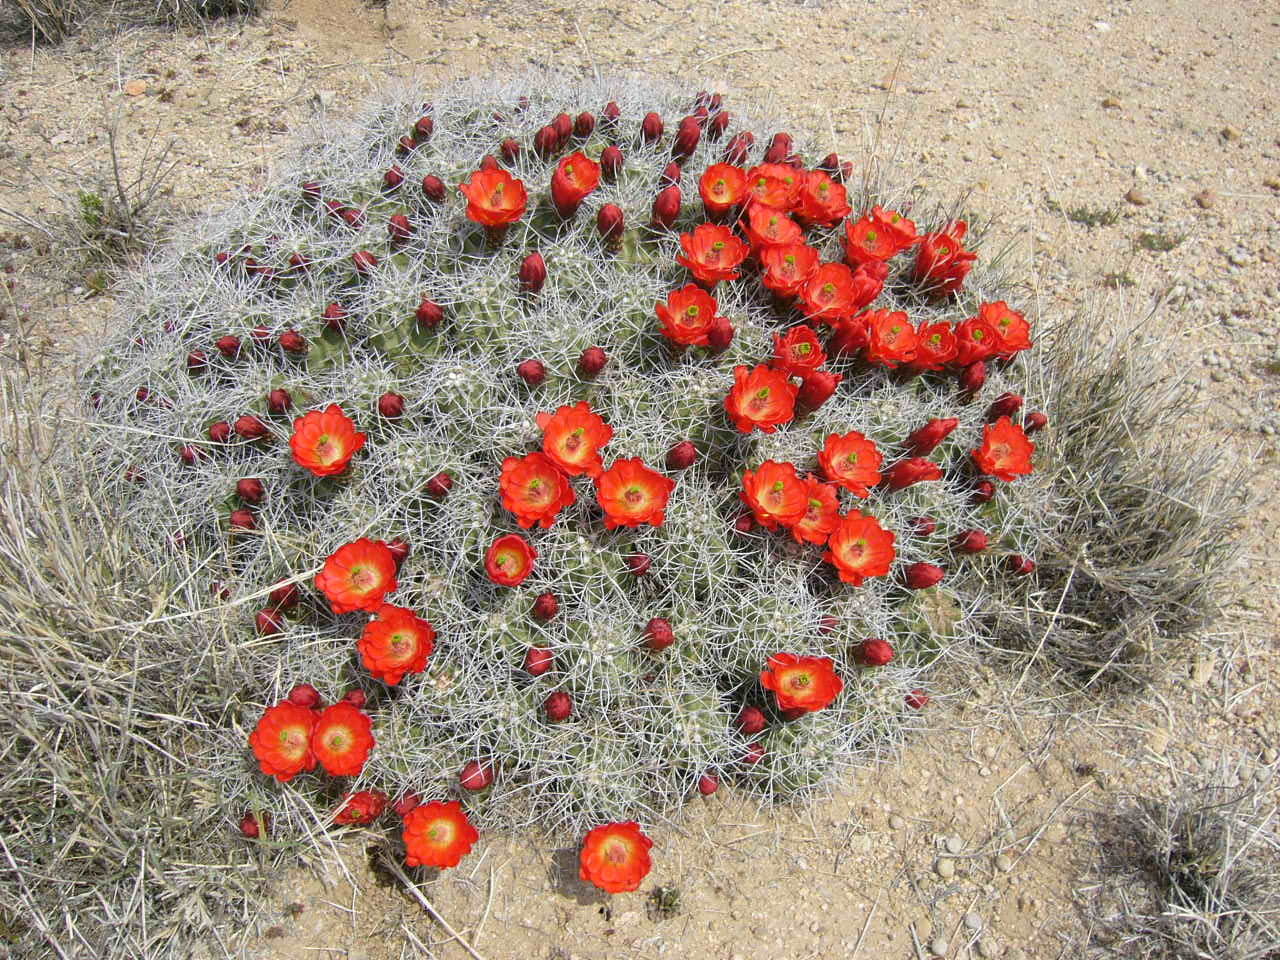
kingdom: Plantae
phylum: Tracheophyta
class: Magnoliopsida
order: Caryophyllales
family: Cactaceae
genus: Echinocereus
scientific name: Echinocereus triglochidiatus
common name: Claretcup hedgehog
